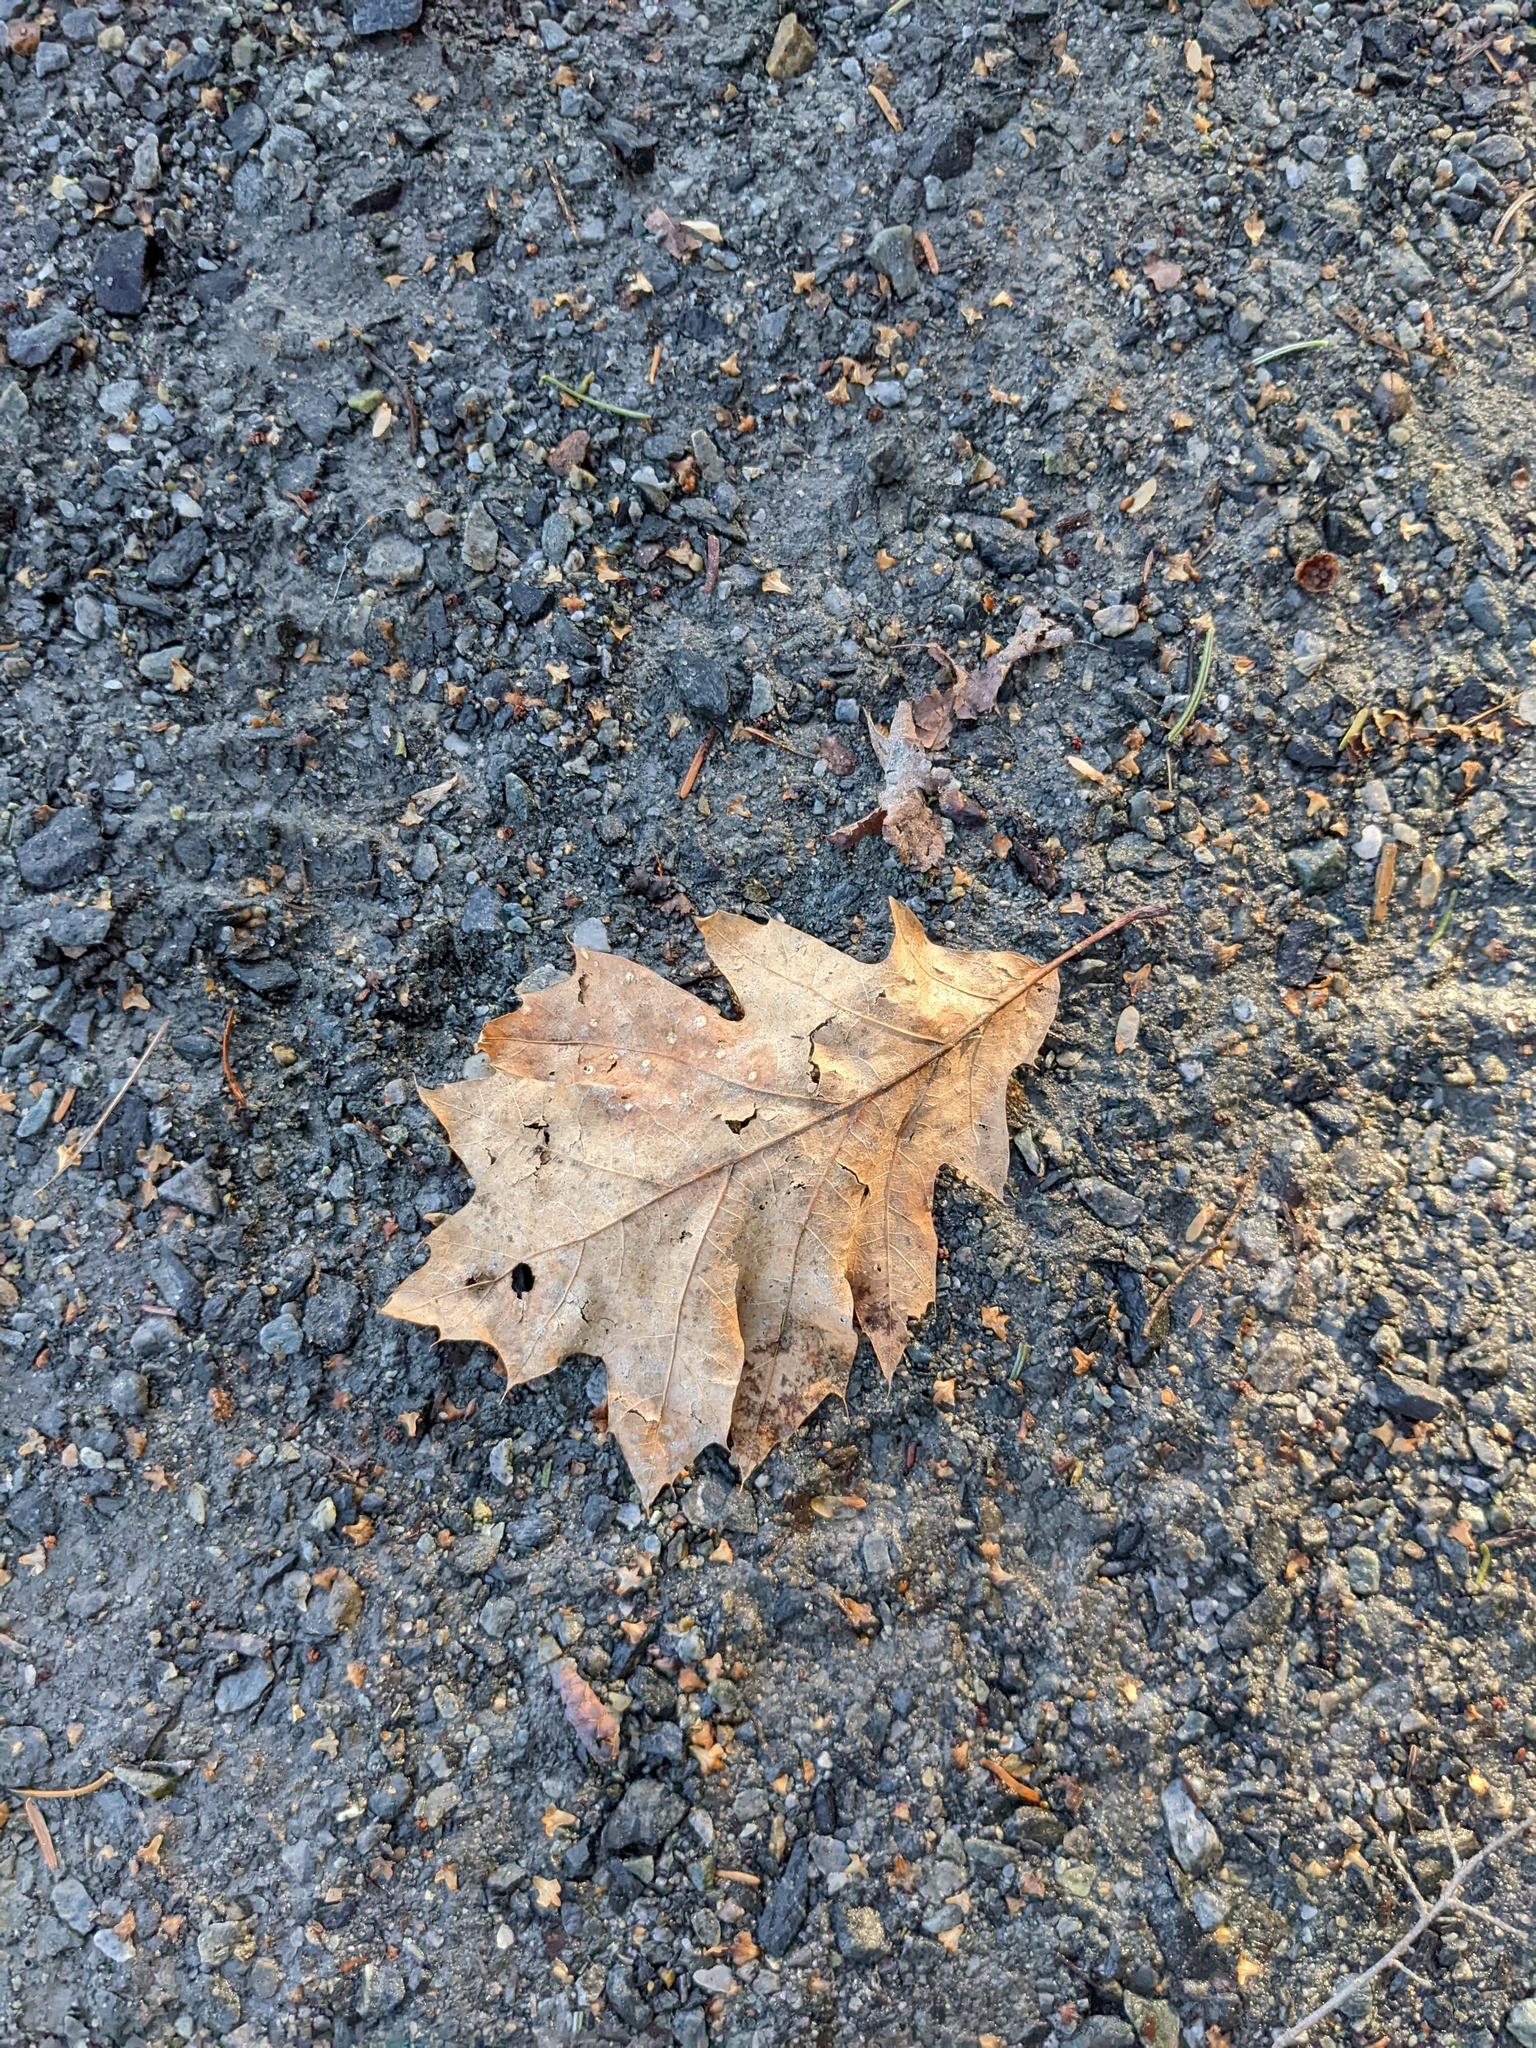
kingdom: Plantae
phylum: Tracheophyta
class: Magnoliopsida
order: Fagales
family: Fagaceae
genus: Quercus
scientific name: Quercus rubra
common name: Red oak
